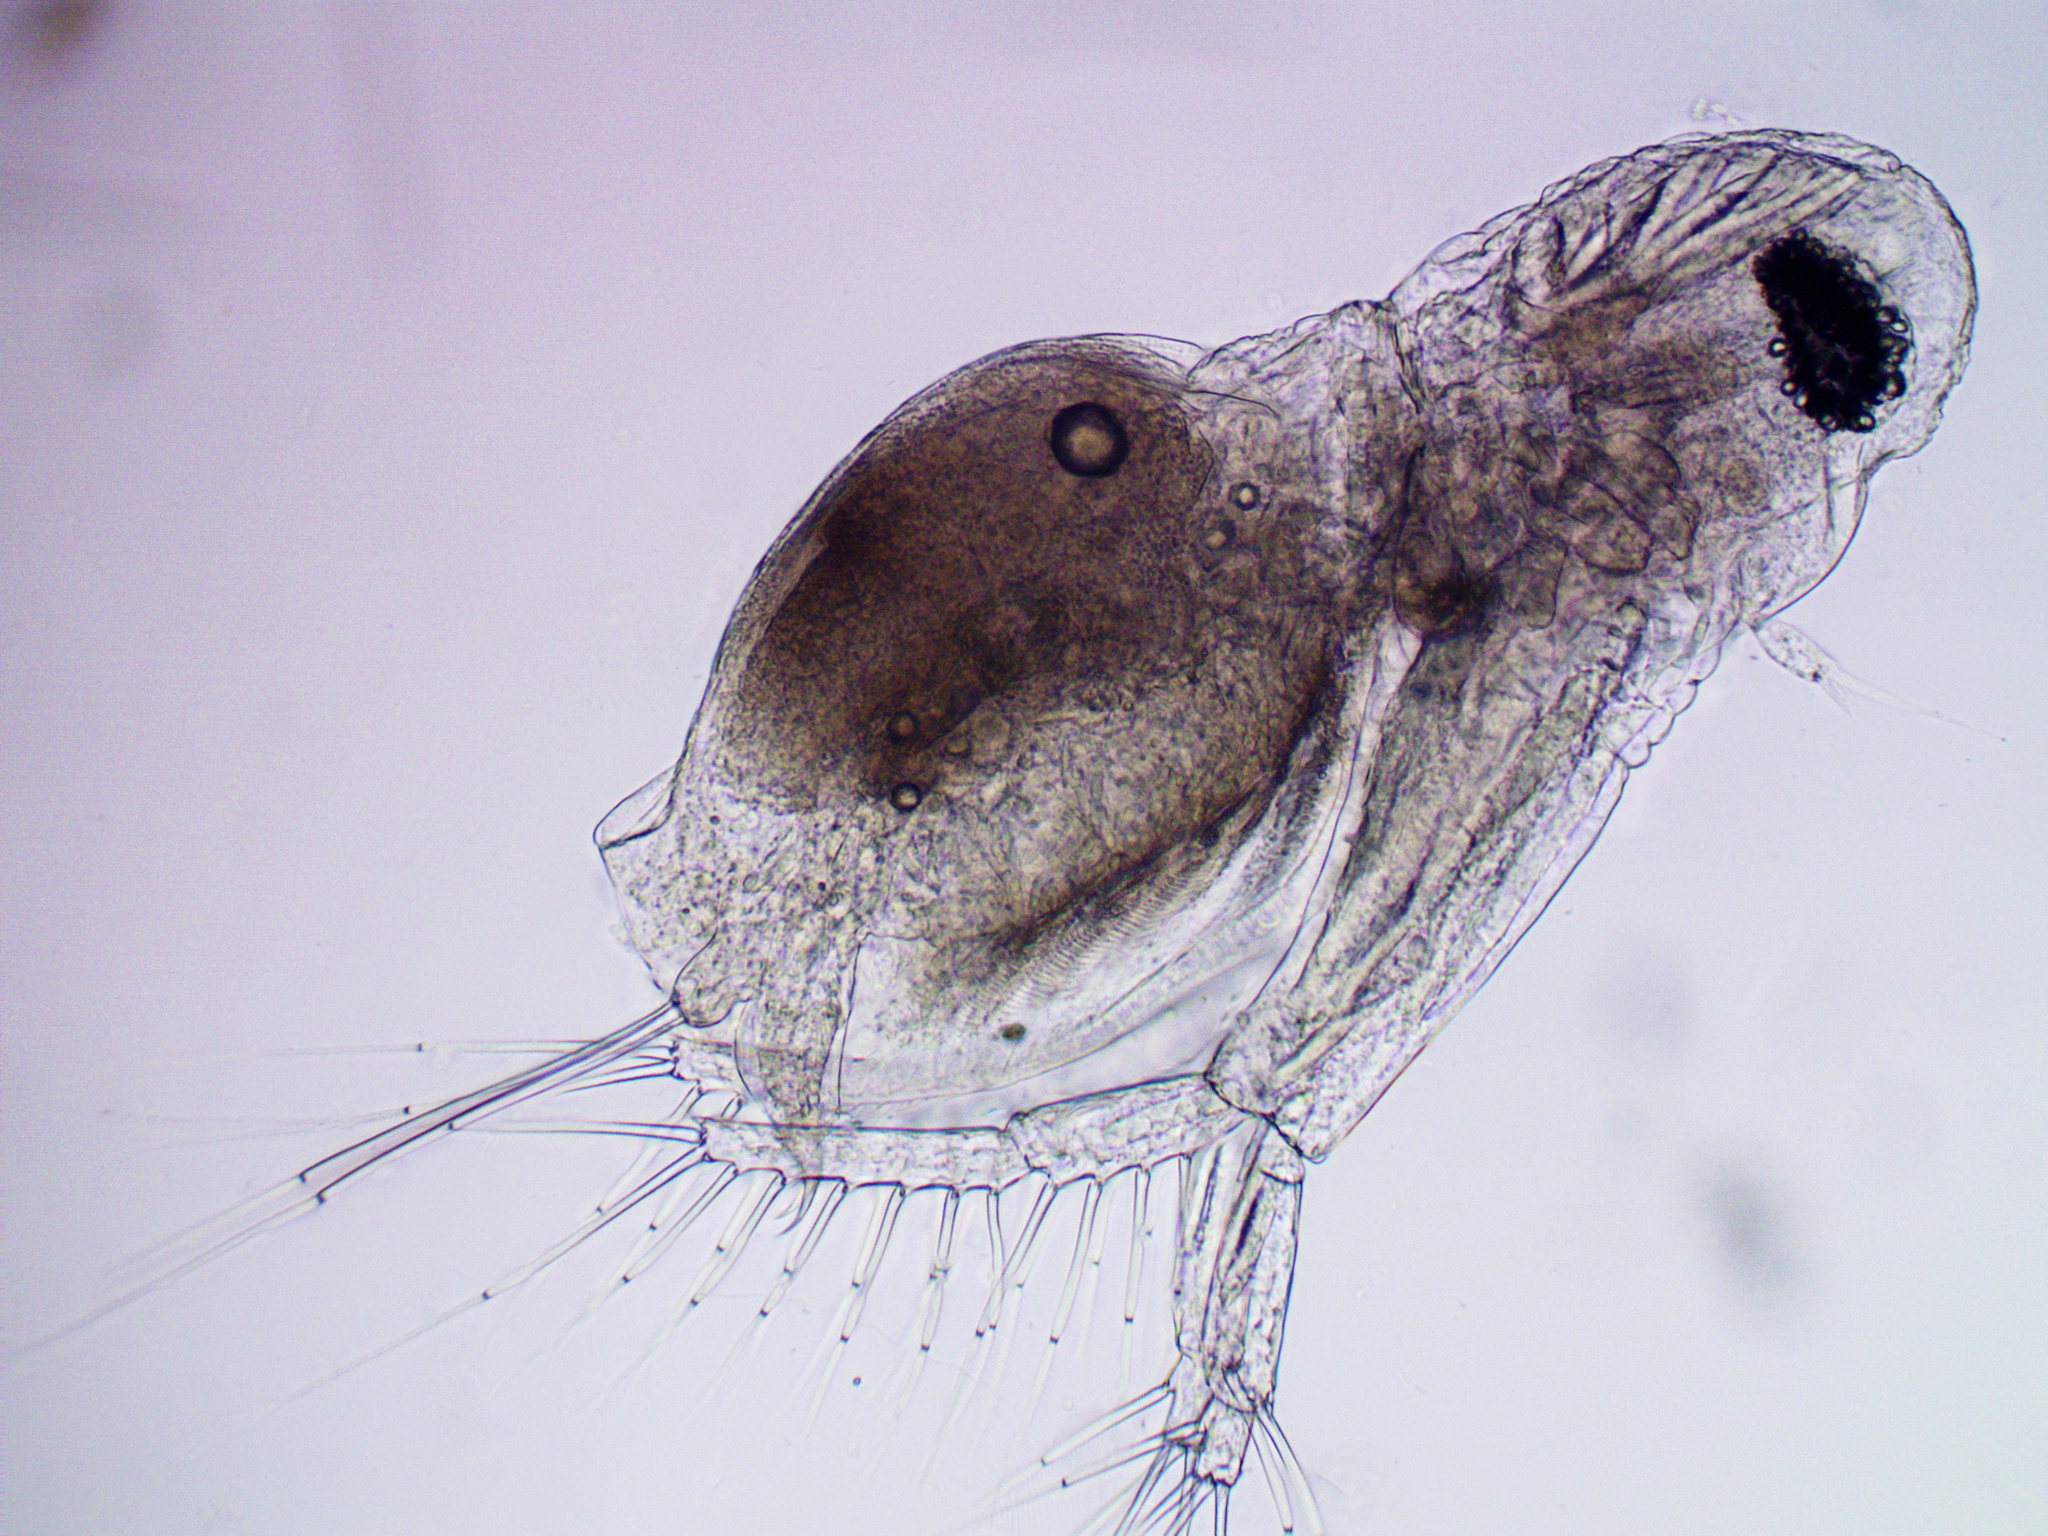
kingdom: Animalia
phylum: Arthropoda
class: Branchiopoda
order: Diplostraca
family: Sididae
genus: Diaphanosoma
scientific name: Diaphanosoma orghidani
